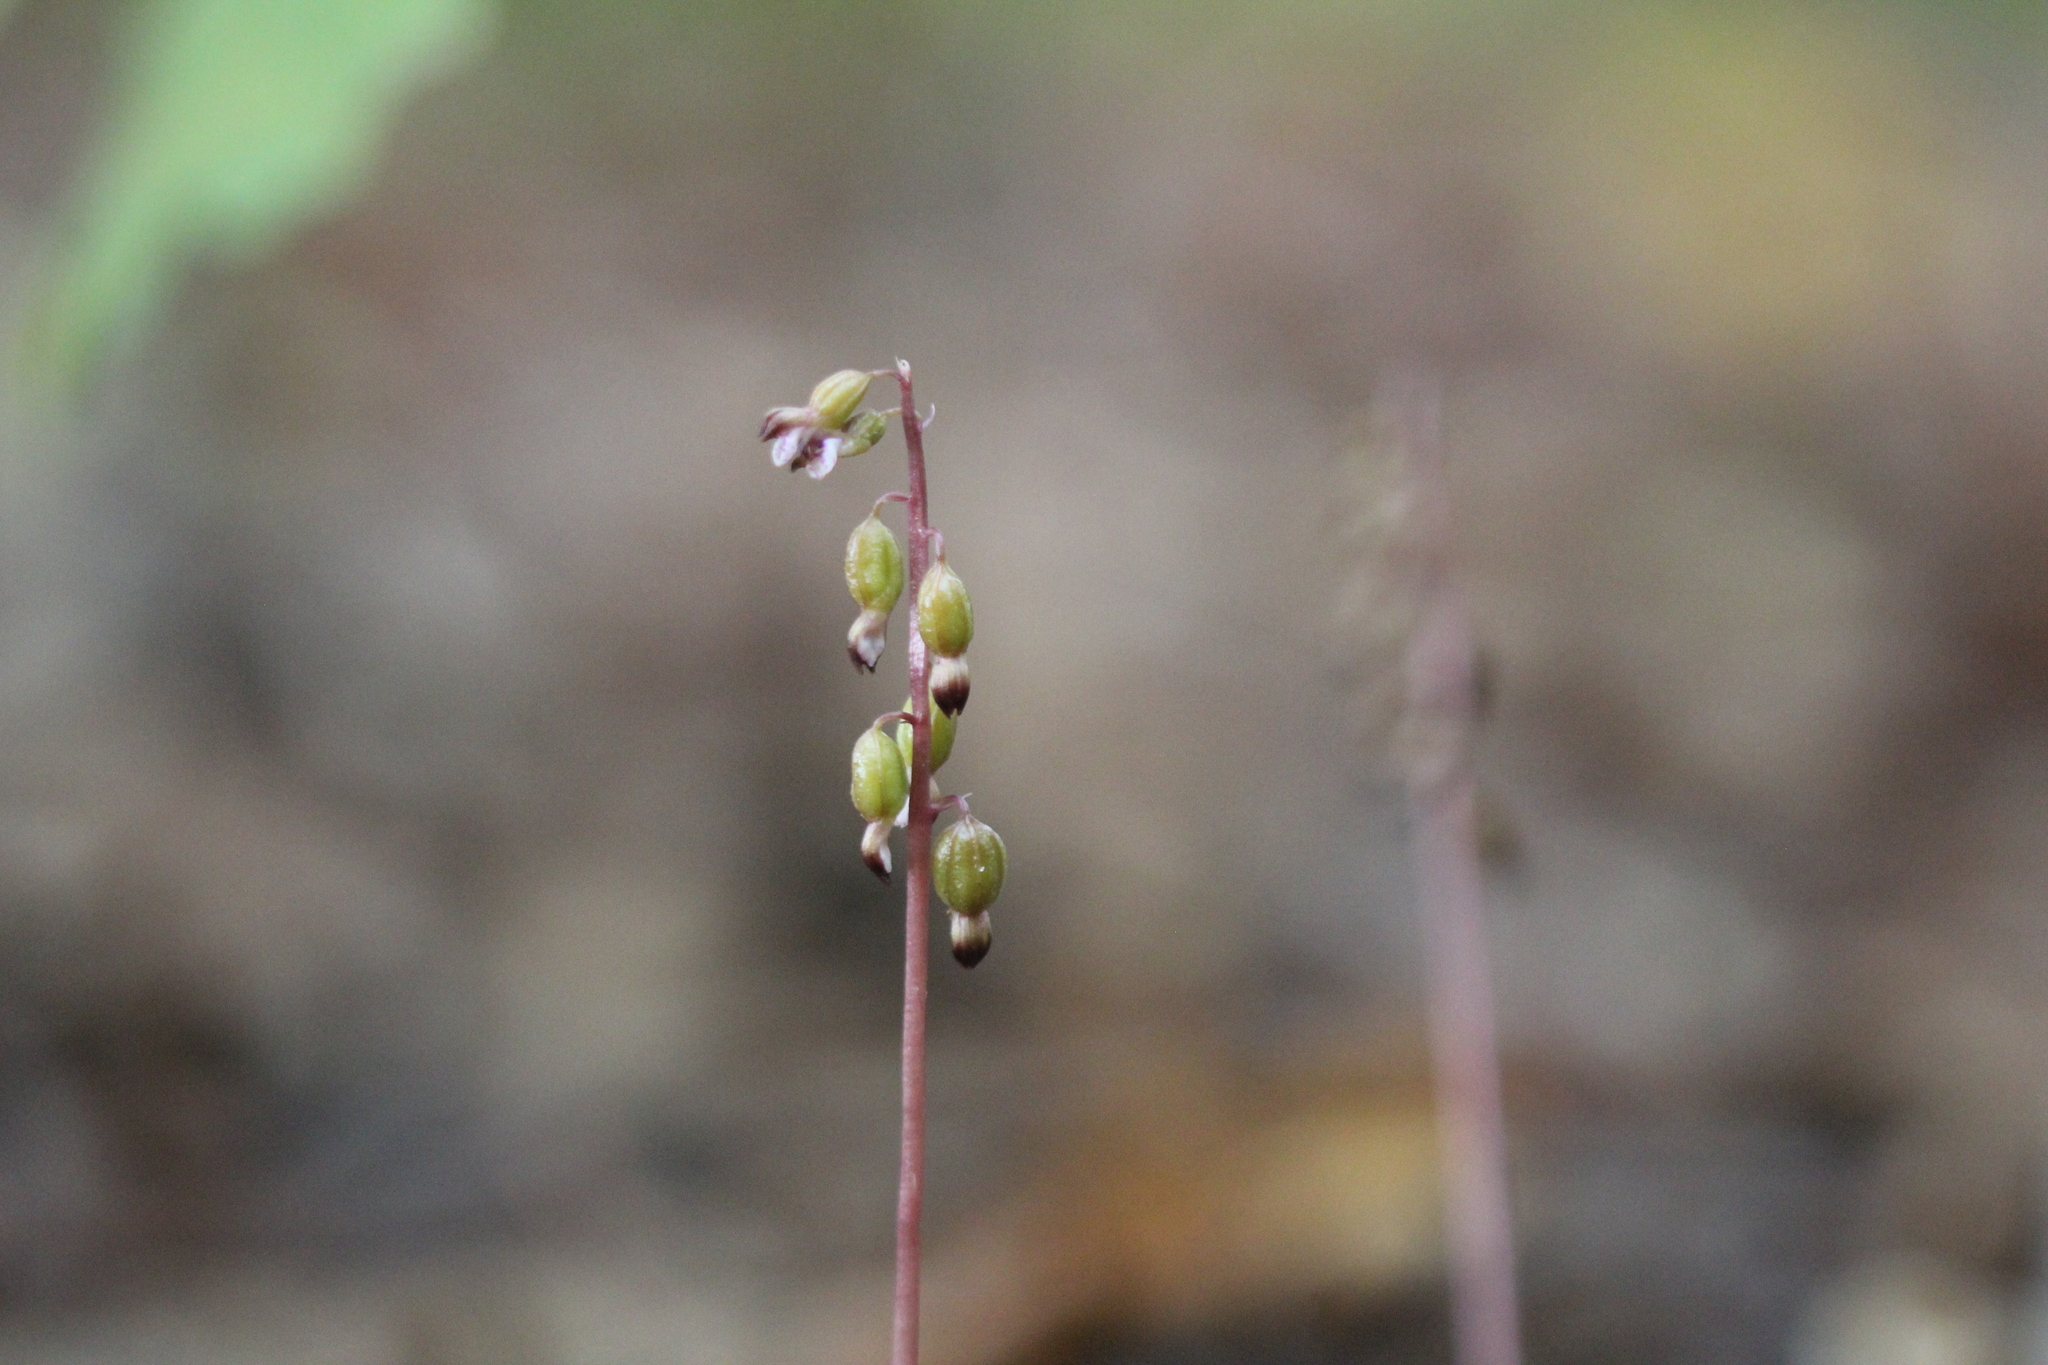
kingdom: Plantae
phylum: Tracheophyta
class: Liliopsida
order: Asparagales
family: Orchidaceae
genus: Corallorhiza
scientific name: Corallorhiza odontorhiza
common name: Autumn coralroot
